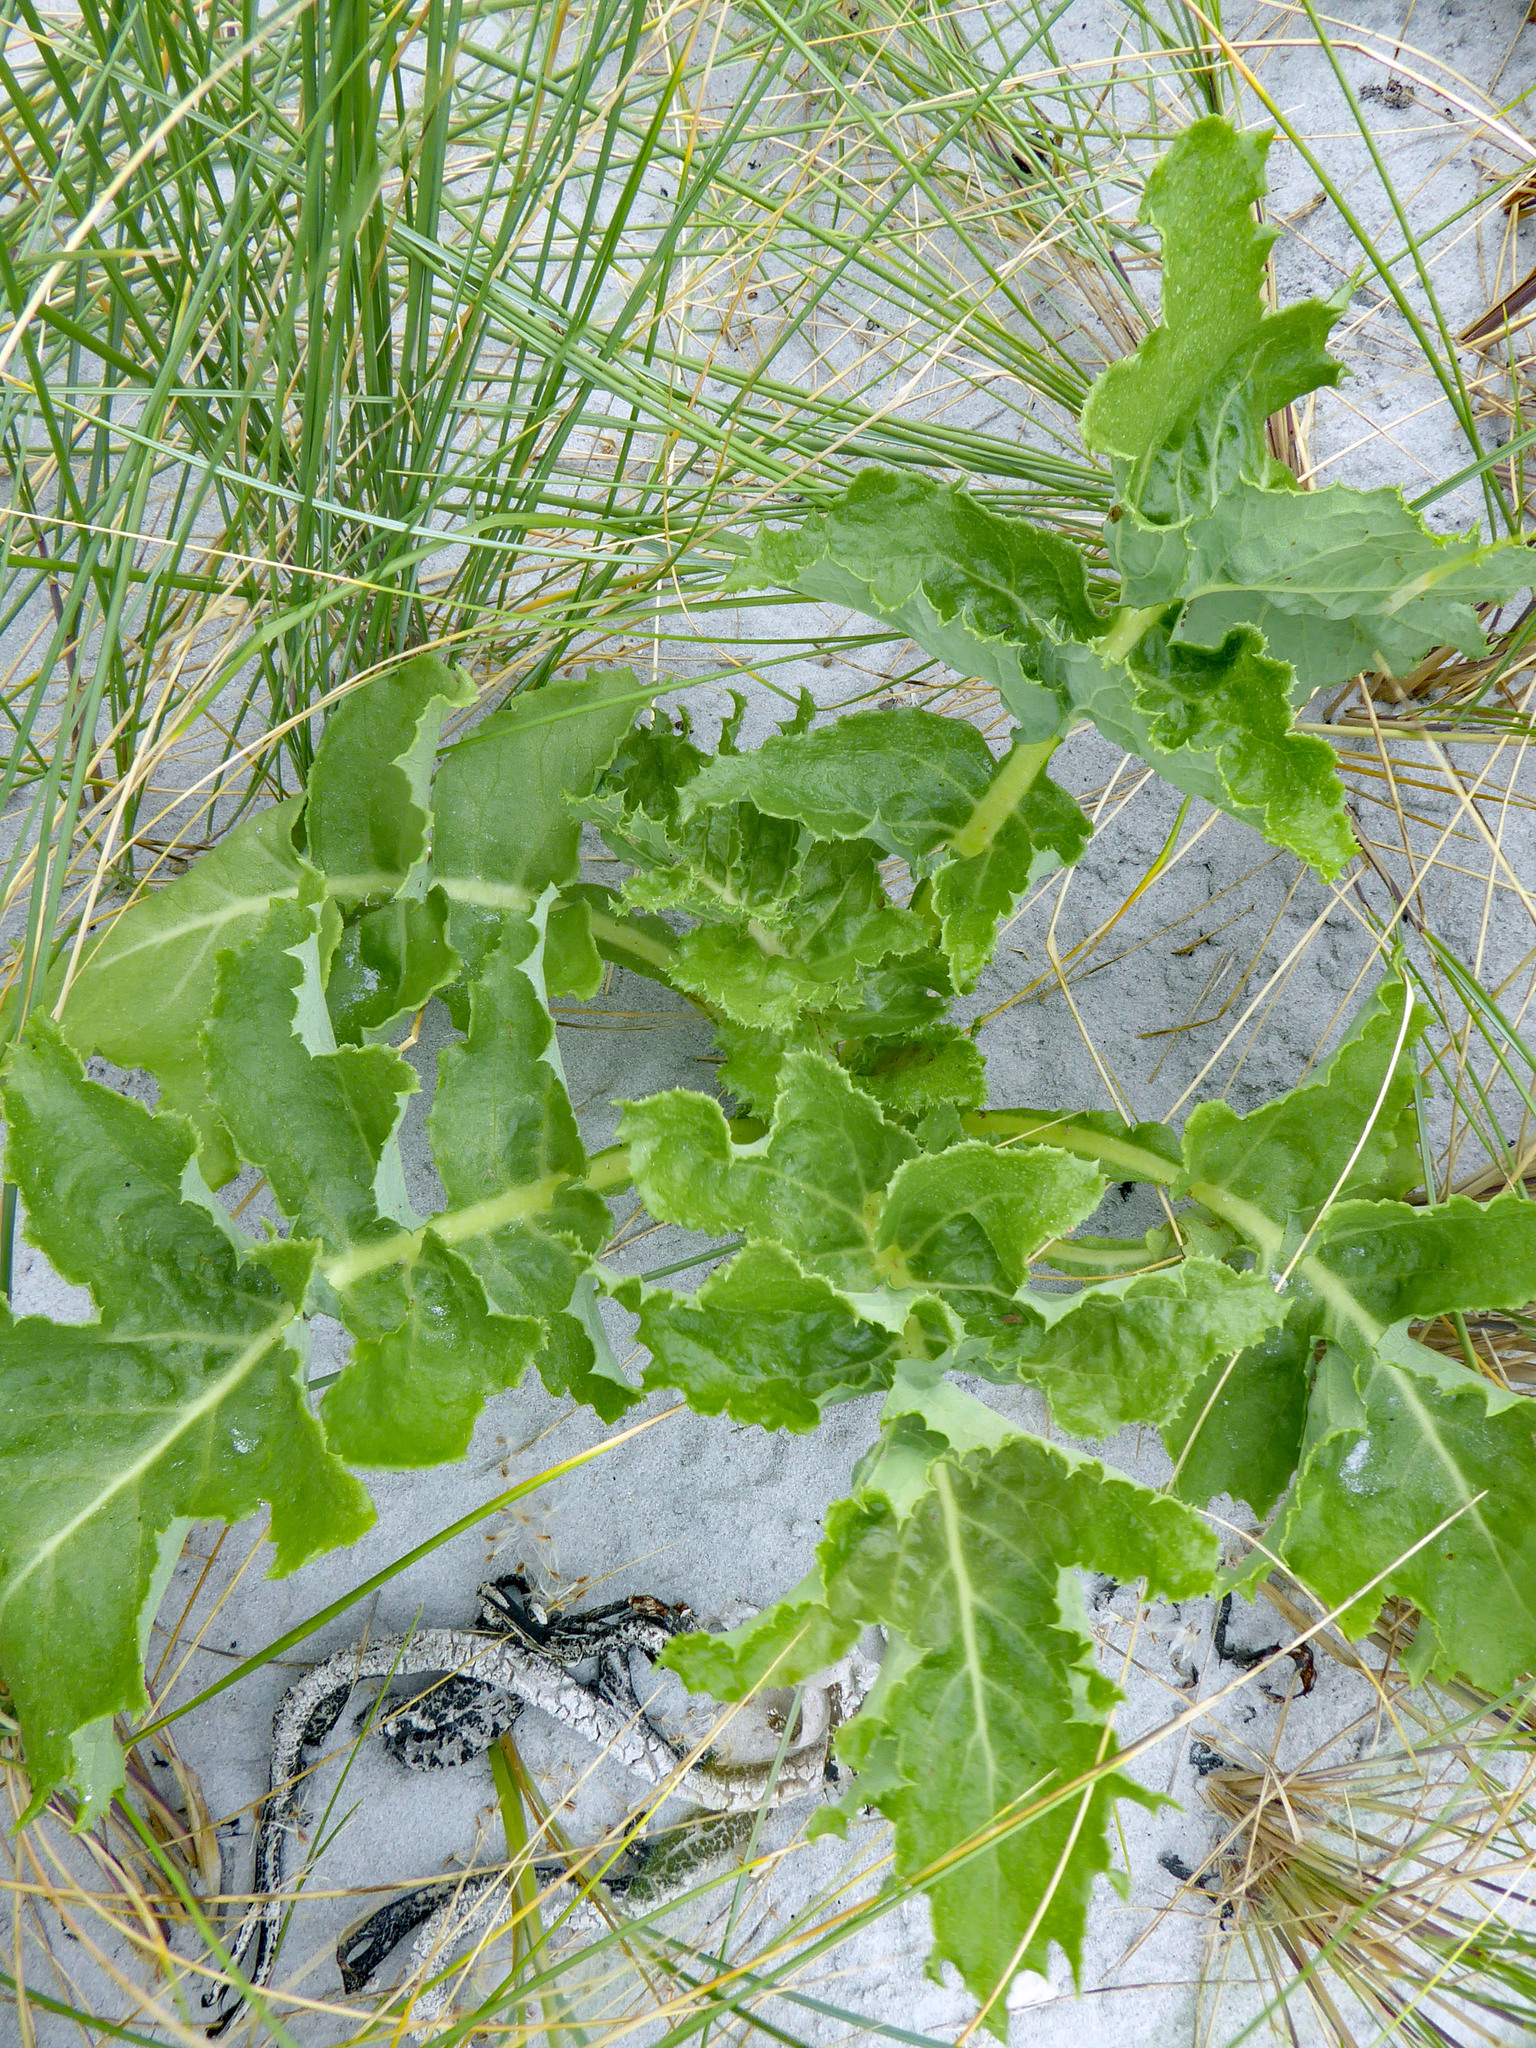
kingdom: Plantae
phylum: Tracheophyta
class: Magnoliopsida
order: Asterales
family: Asteraceae
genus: Sonchus
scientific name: Sonchus grandifolius
